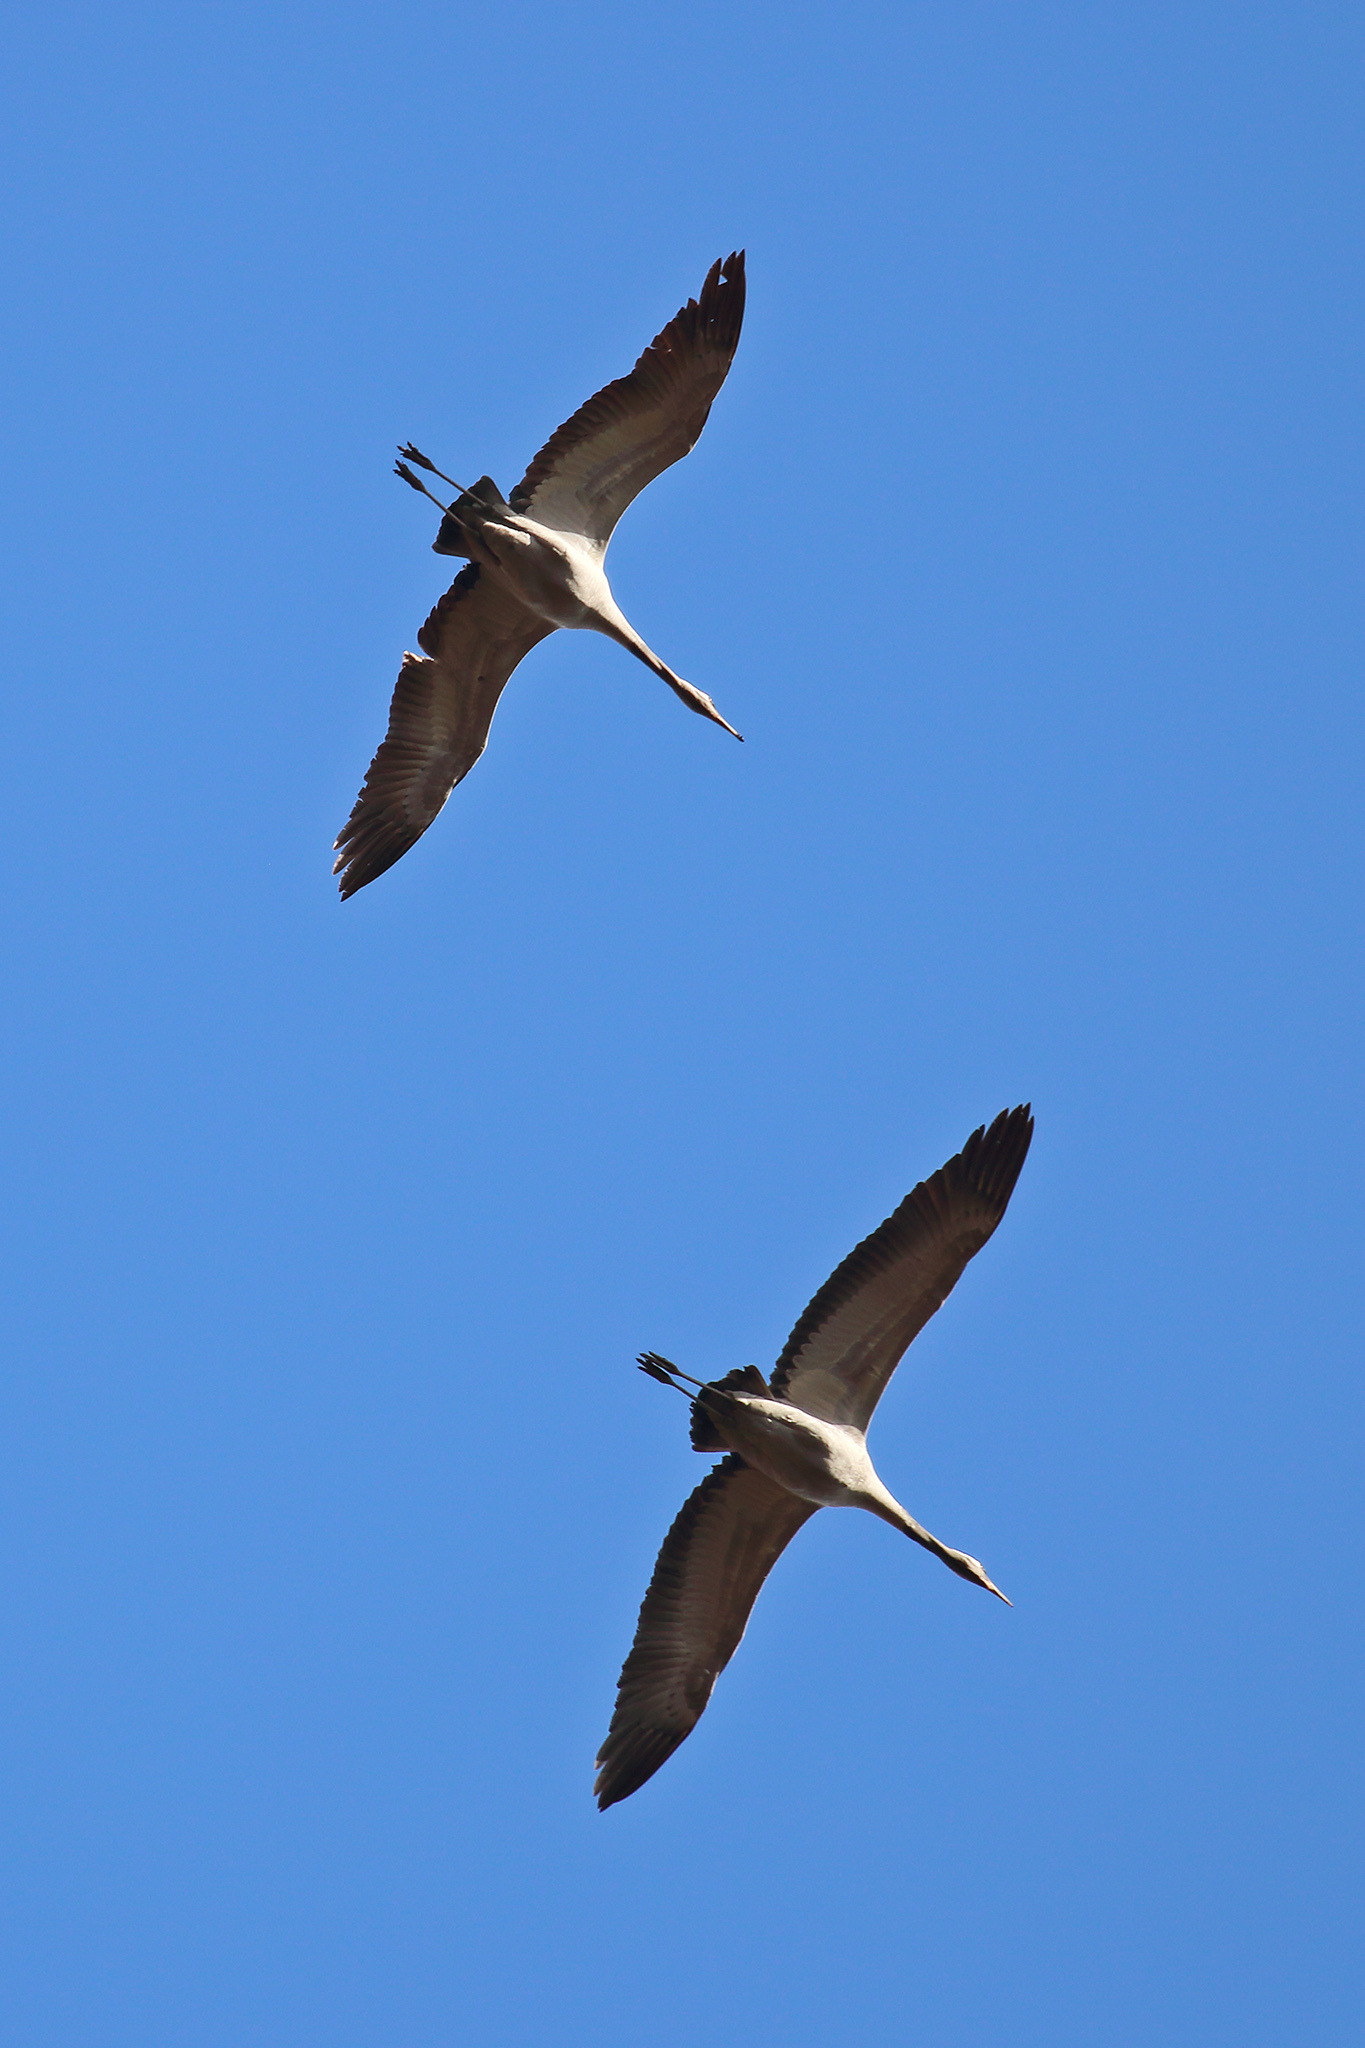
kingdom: Animalia
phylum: Chordata
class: Aves
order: Gruiformes
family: Gruidae
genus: Grus
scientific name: Grus grus
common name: Common crane
